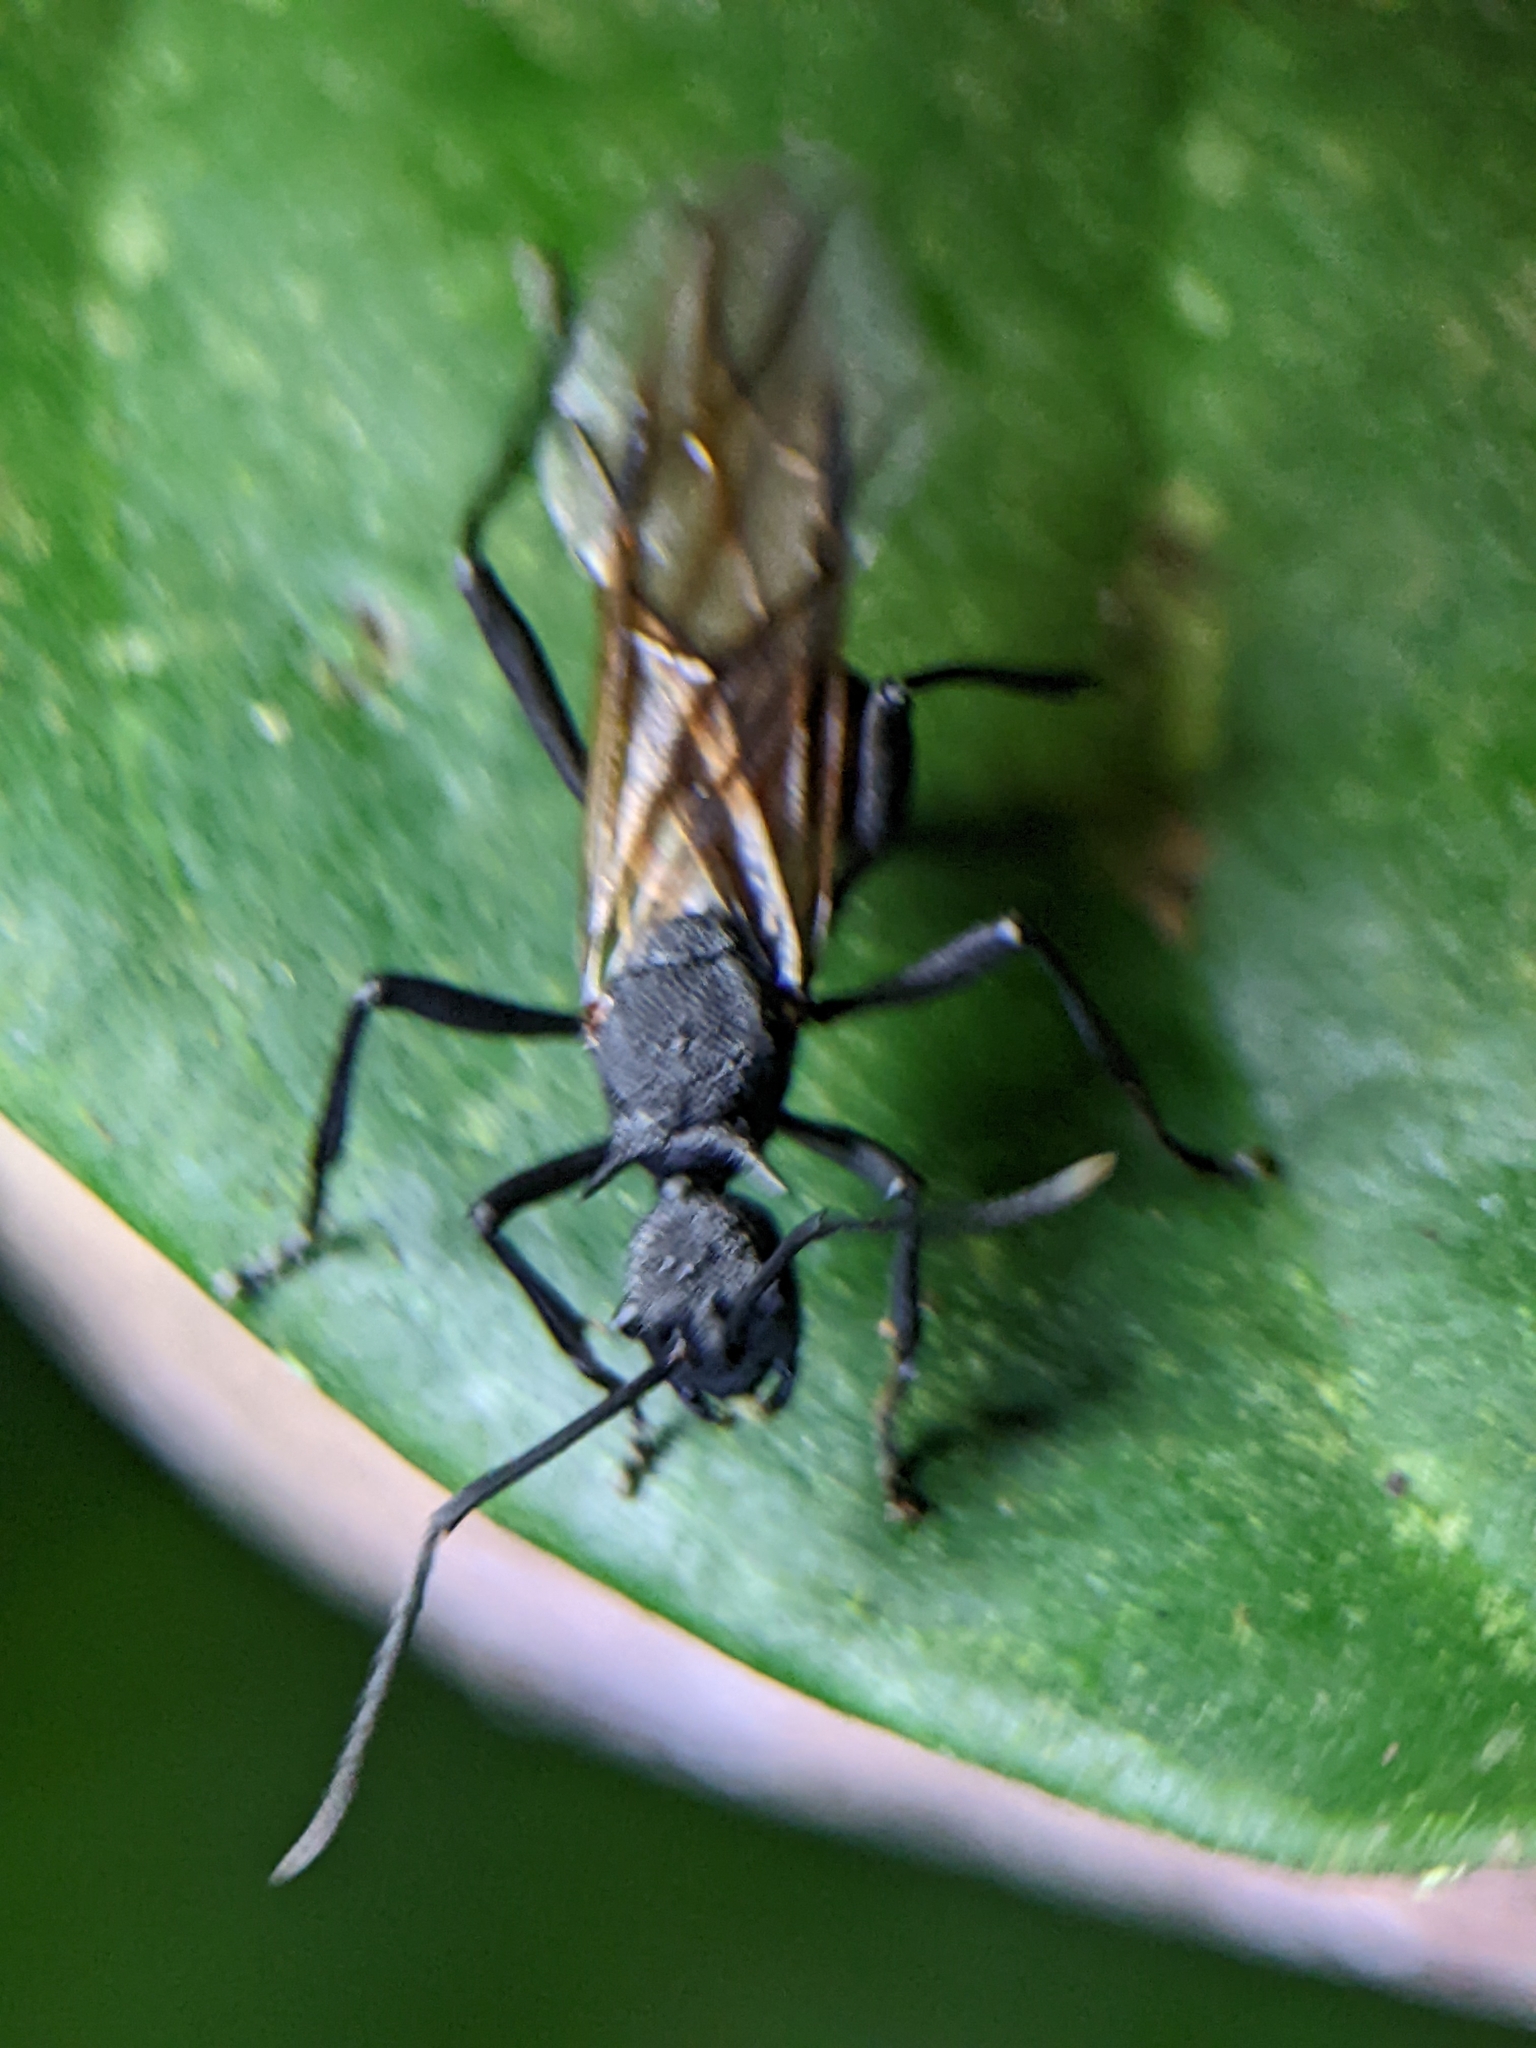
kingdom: Animalia
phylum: Arthropoda
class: Insecta
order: Hymenoptera
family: Formicidae
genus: Polyrhachis
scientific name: Polyrhachis armata
